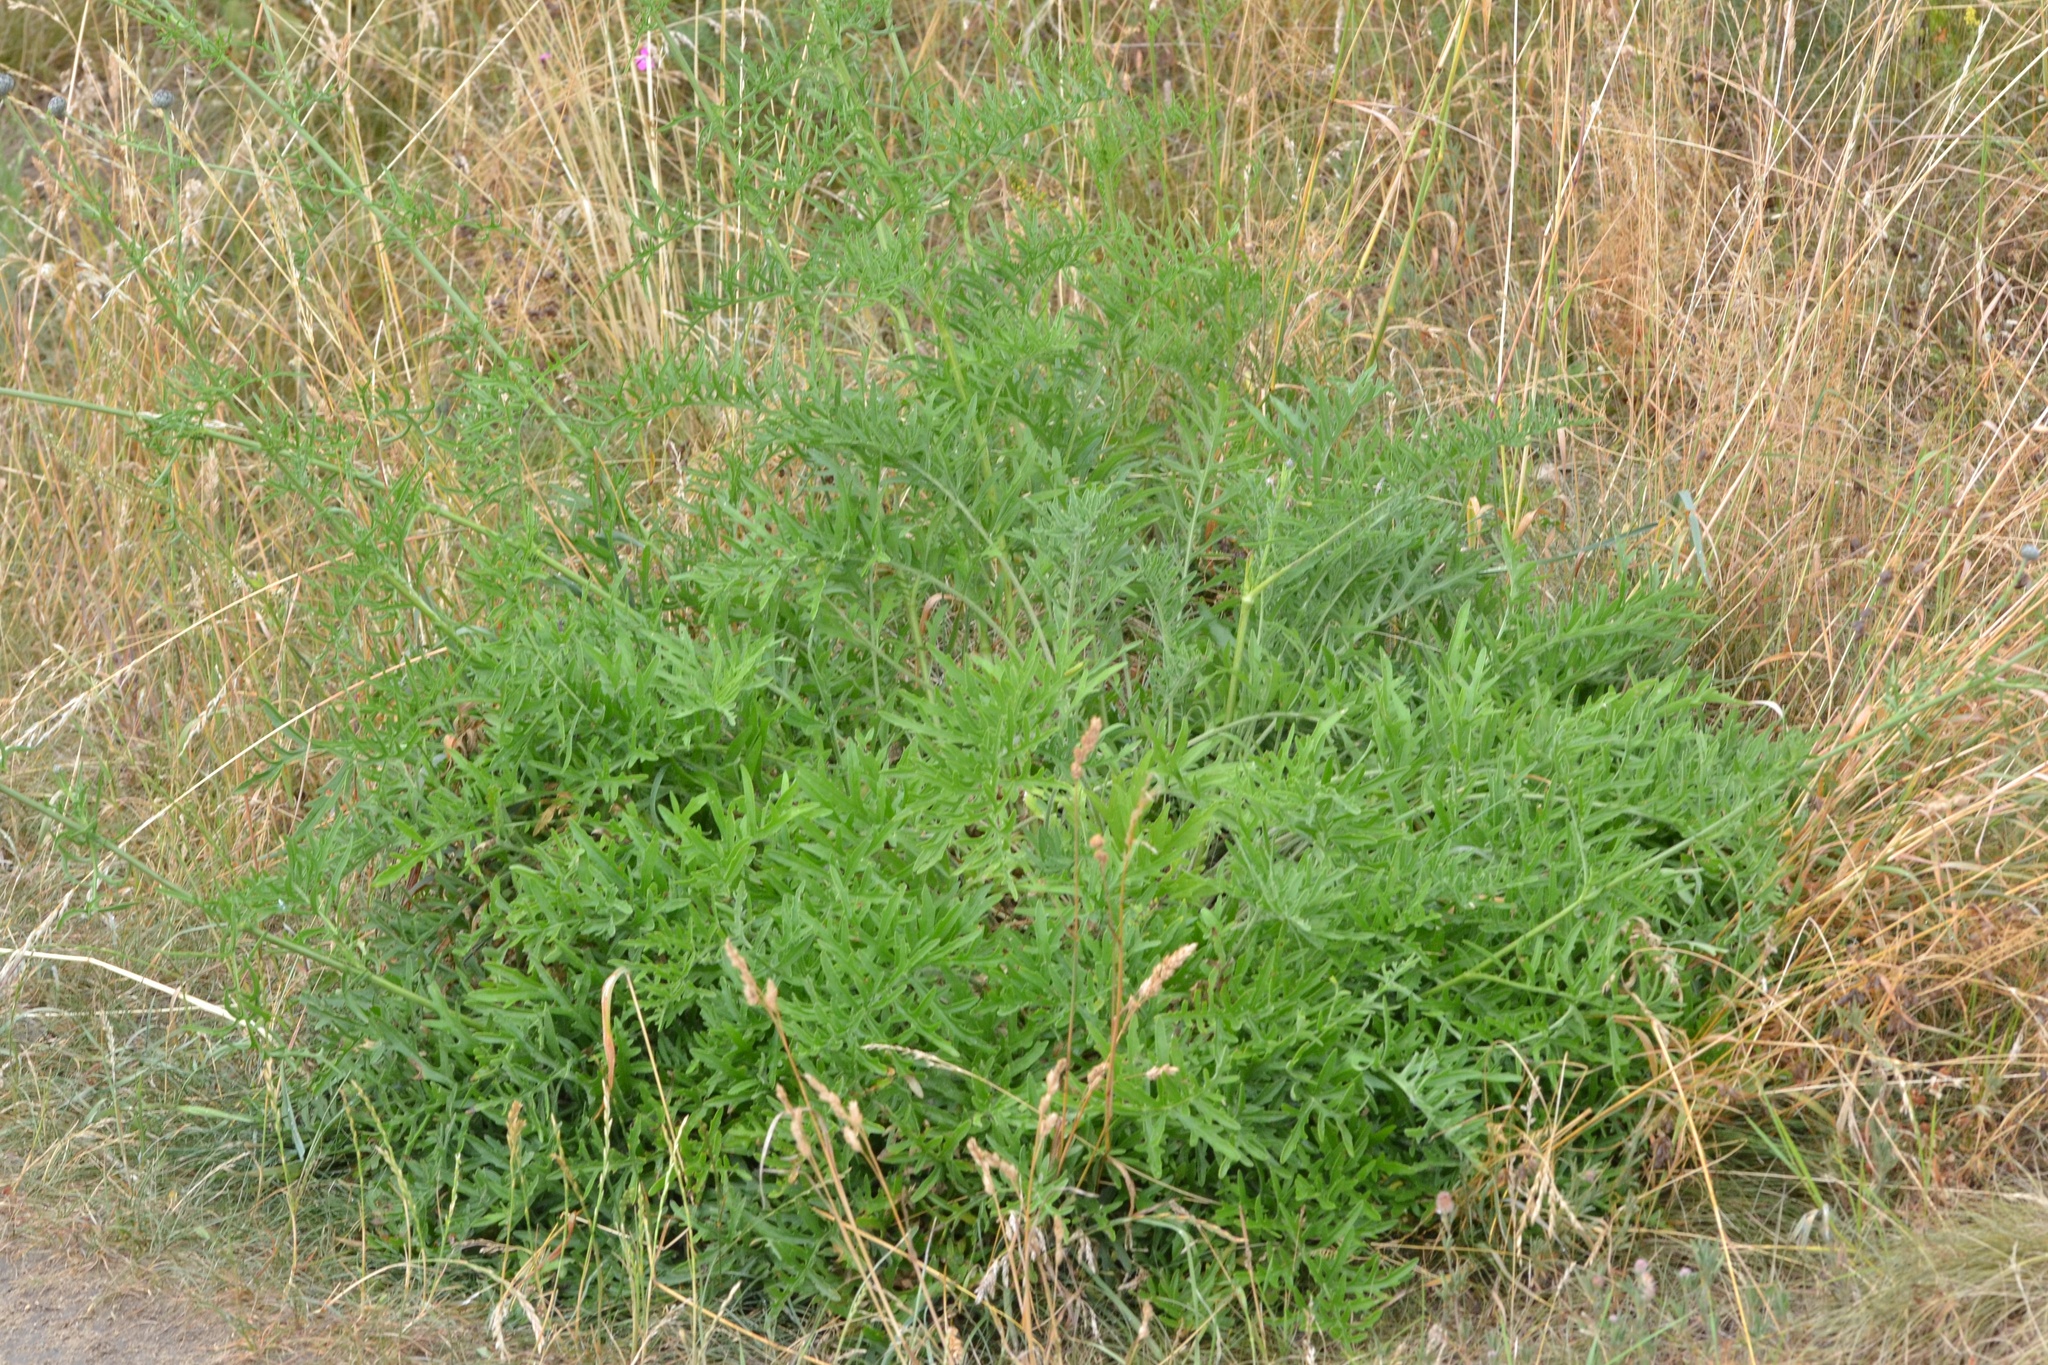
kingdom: Plantae
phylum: Tracheophyta
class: Magnoliopsida
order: Asterales
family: Asteraceae
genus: Centaurea
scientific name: Centaurea scabiosa
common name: Greater knapweed
